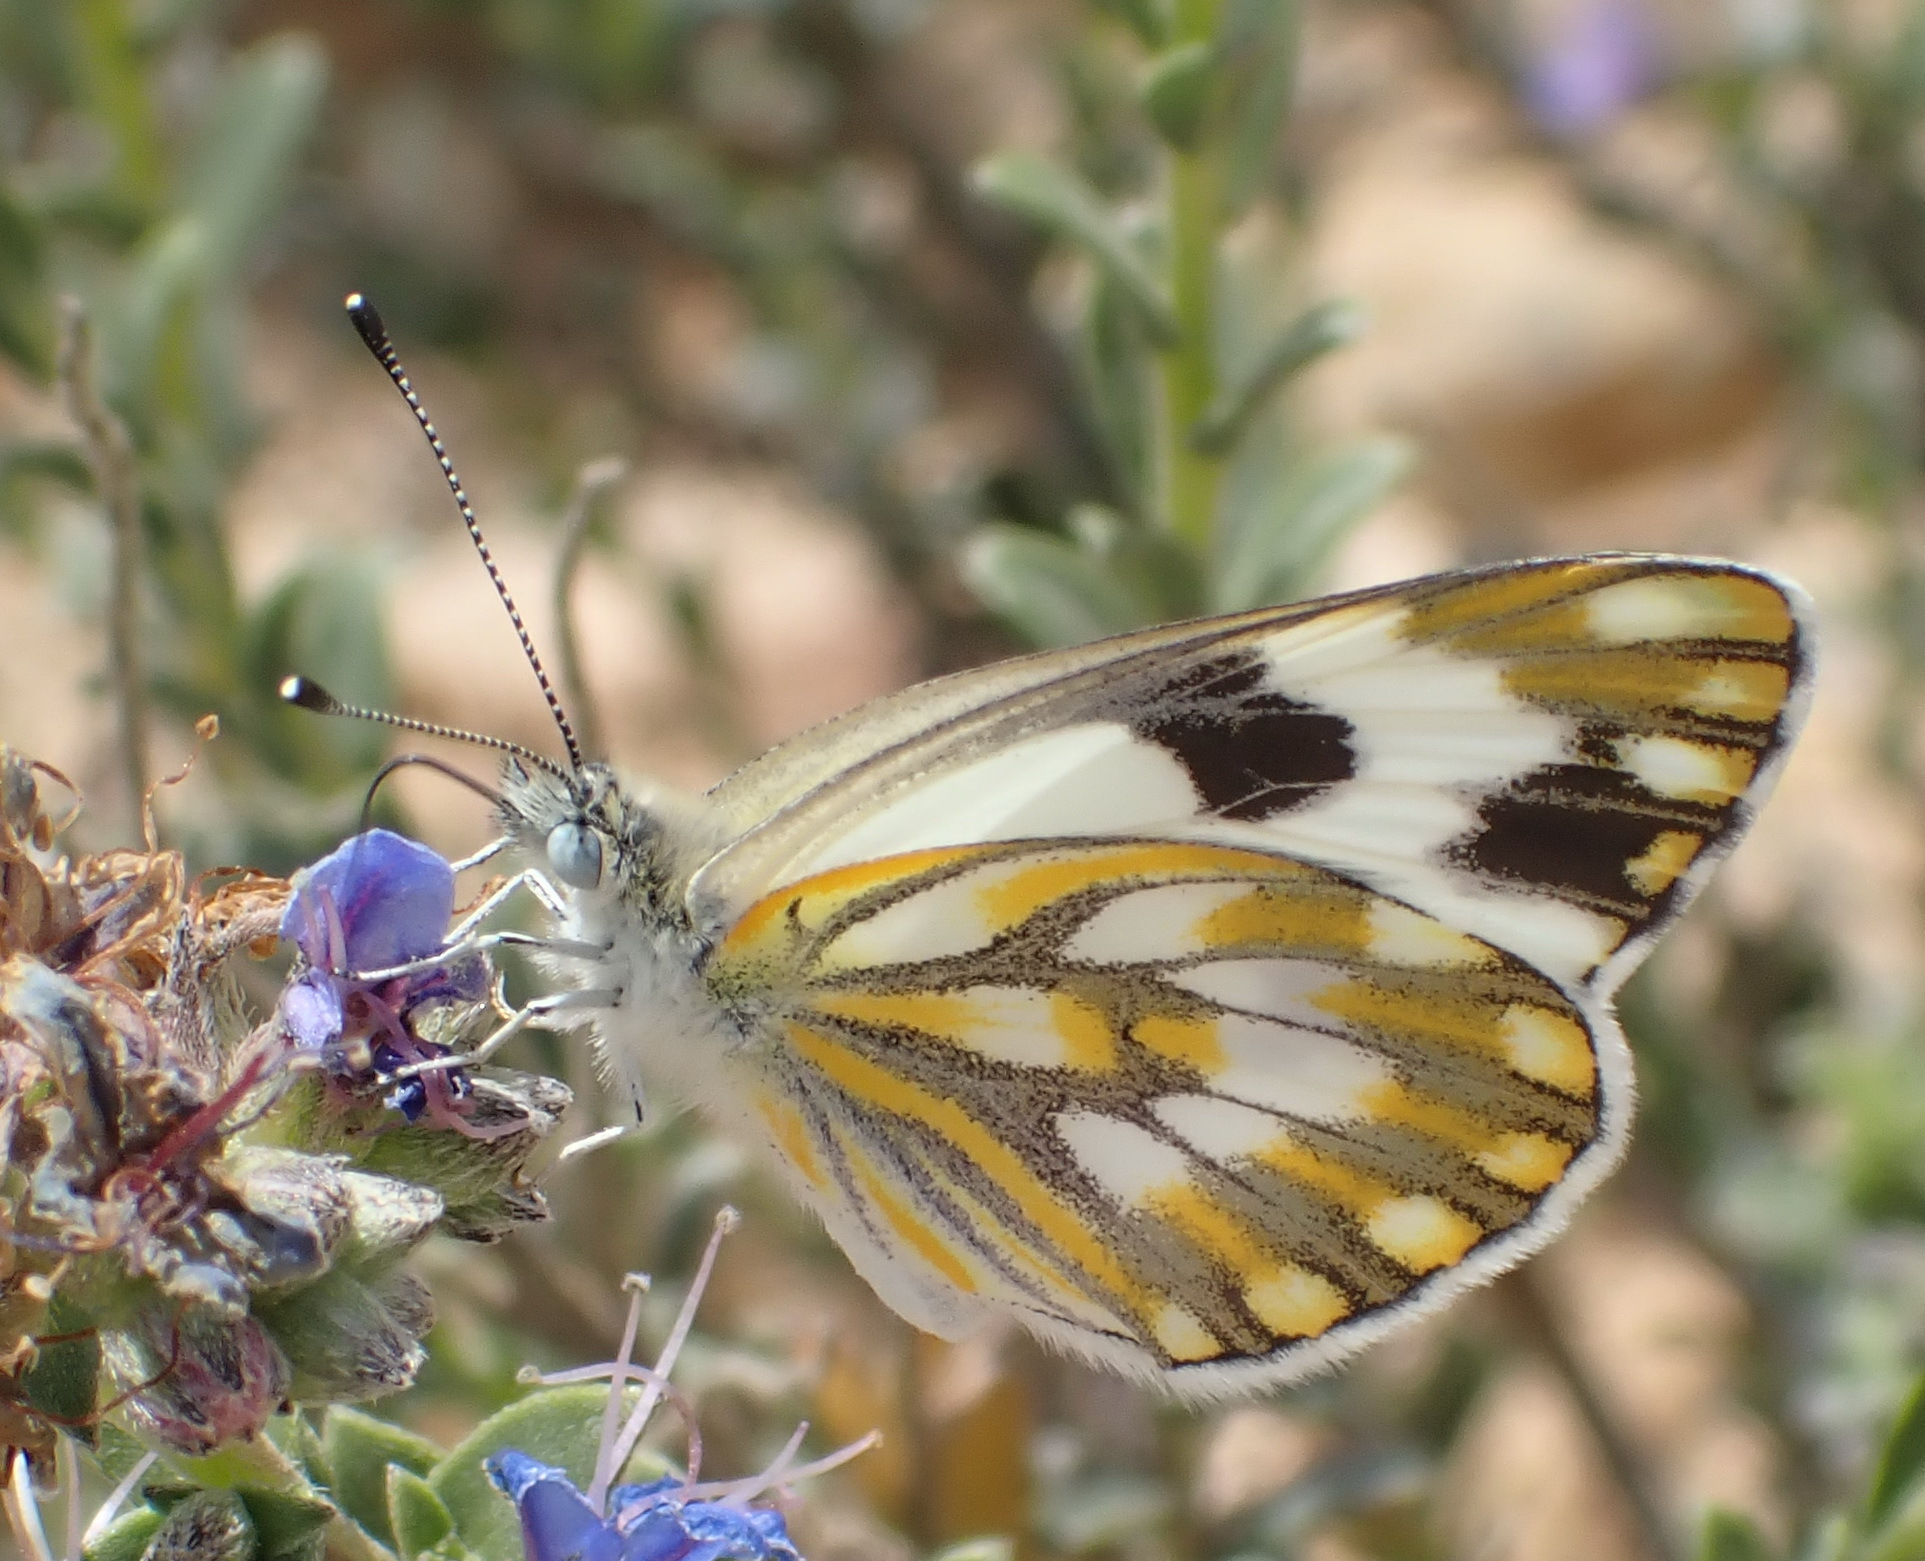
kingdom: Animalia
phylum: Arthropoda
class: Insecta
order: Lepidoptera
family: Pieridae
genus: Pontia
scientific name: Pontia helice
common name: Meadow white
